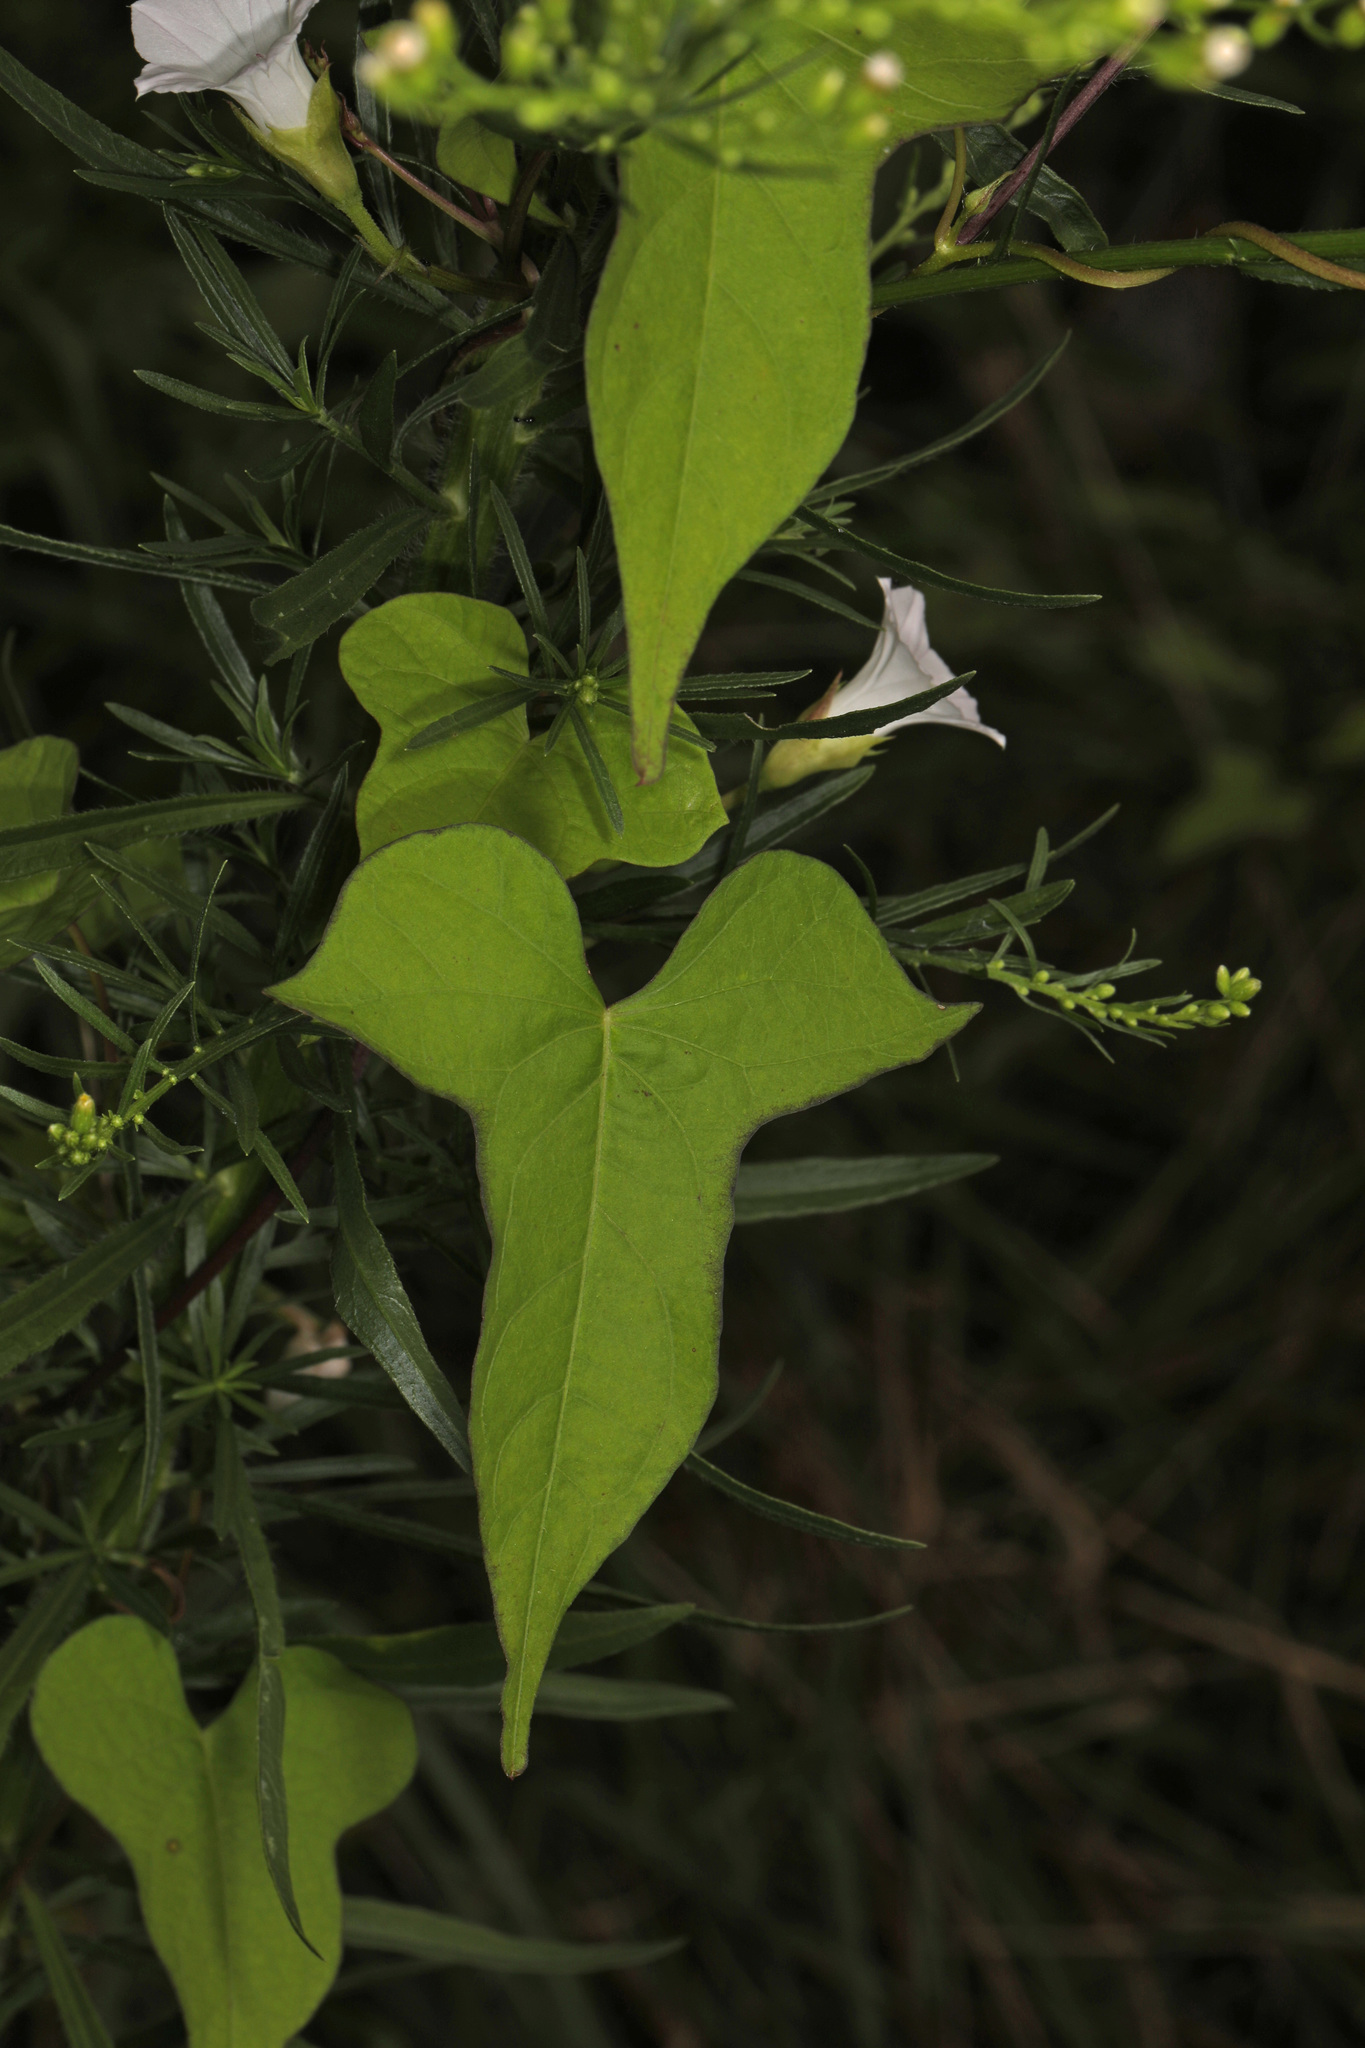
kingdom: Plantae
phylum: Tracheophyta
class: Magnoliopsida
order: Solanales
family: Convolvulaceae
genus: Ipomoea
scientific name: Ipomoea lacunosa
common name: White morning-glory
